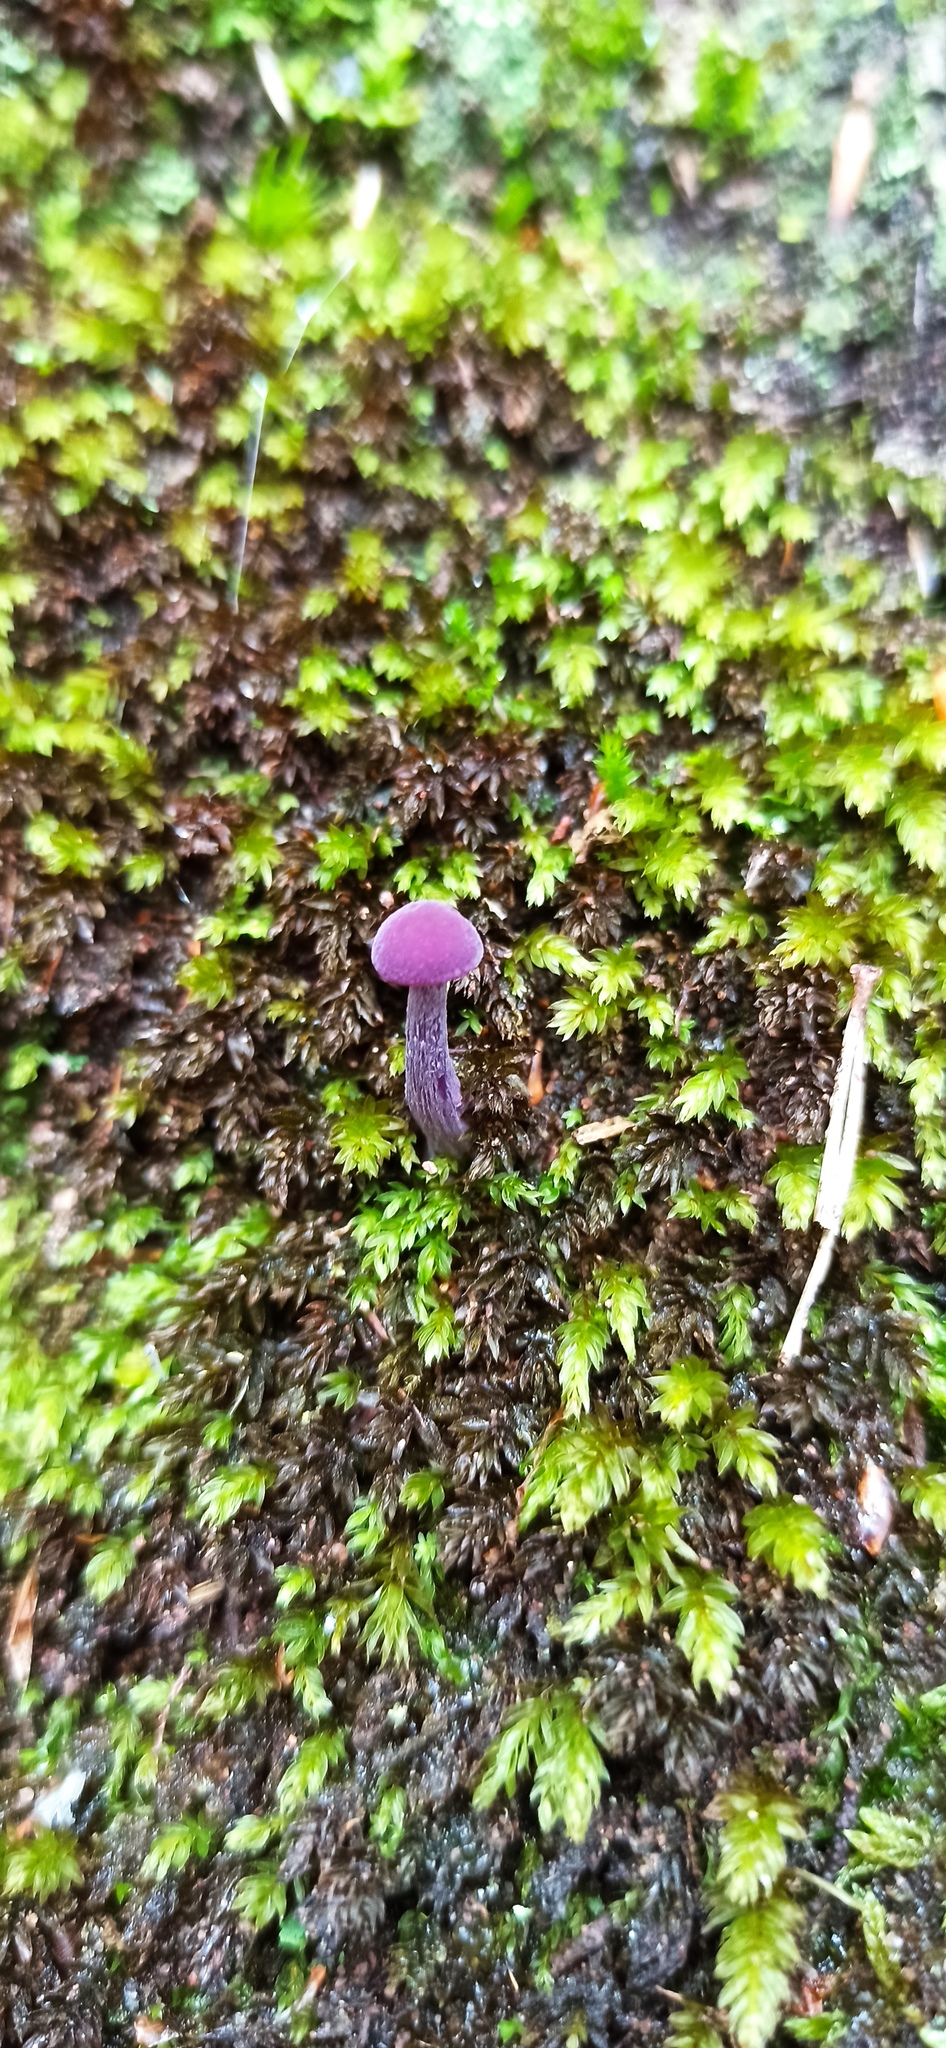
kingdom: Fungi
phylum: Basidiomycota
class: Agaricomycetes
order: Agaricales
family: Hydnangiaceae
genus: Laccaria
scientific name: Laccaria amethystina
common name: Amethyst deceiver
